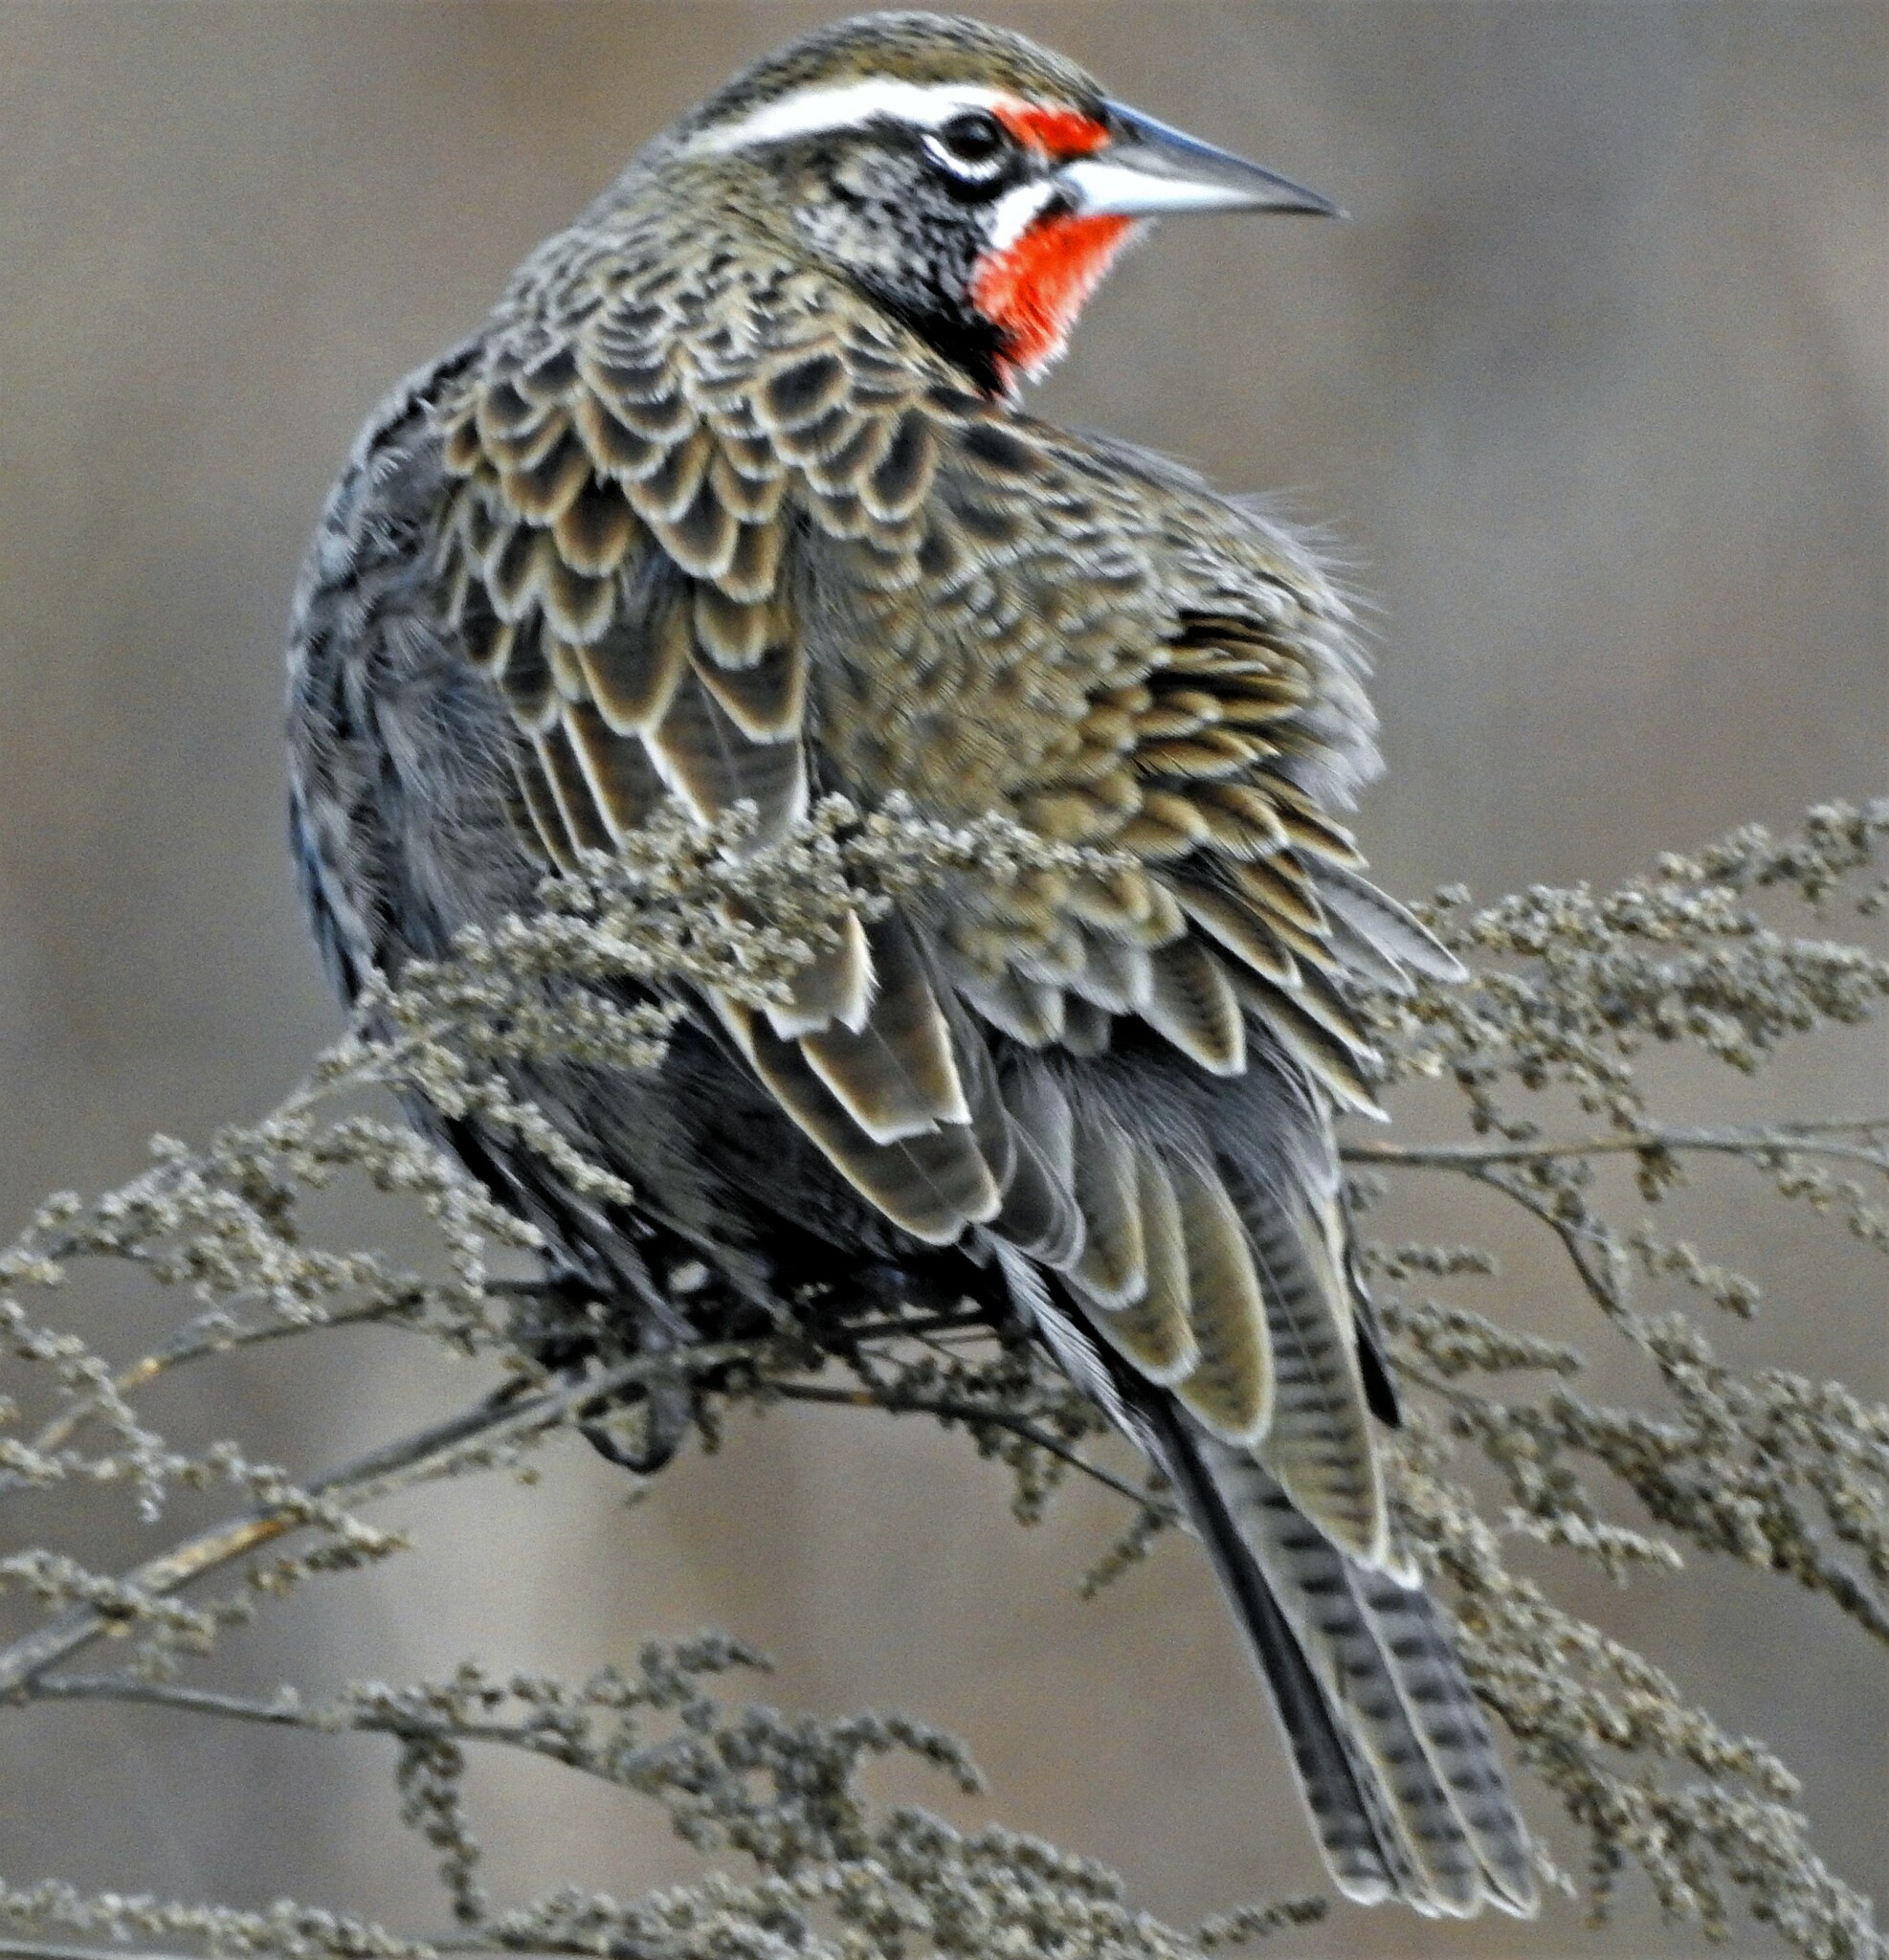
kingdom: Animalia
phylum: Chordata
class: Aves
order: Passeriformes
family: Icteridae
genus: Sturnella
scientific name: Sturnella loyca
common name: Long-tailed meadowlark
